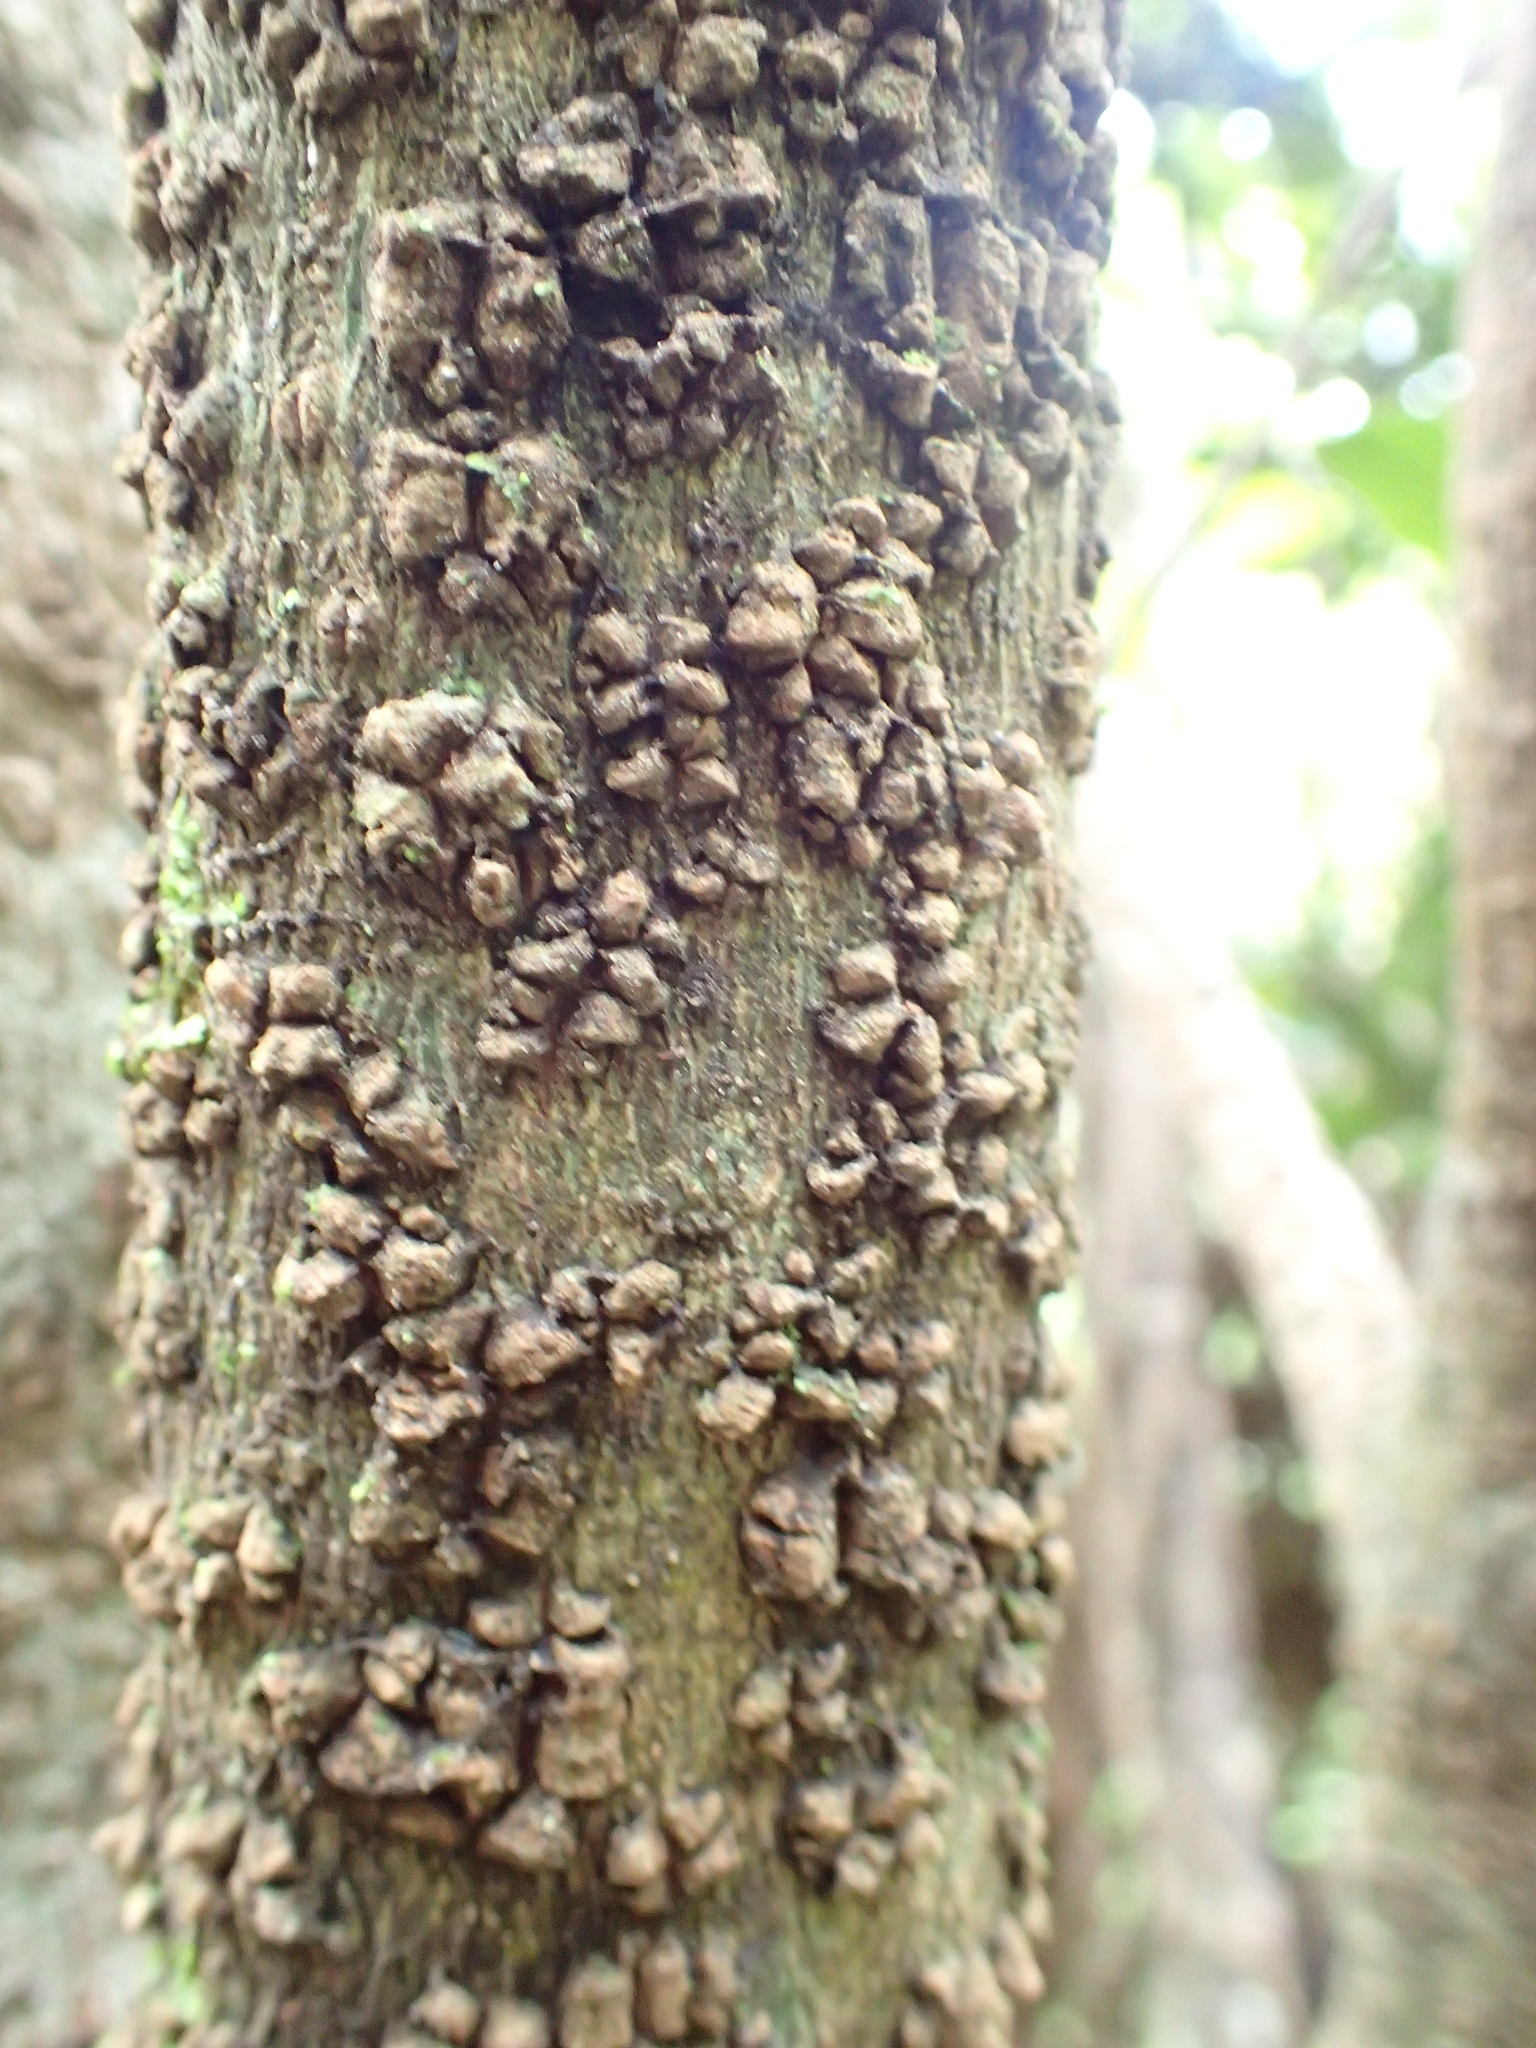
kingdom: Plantae
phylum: Tracheophyta
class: Magnoliopsida
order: Laurales
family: Monimiaceae
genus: Hedycarya
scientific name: Hedycarya arborea
